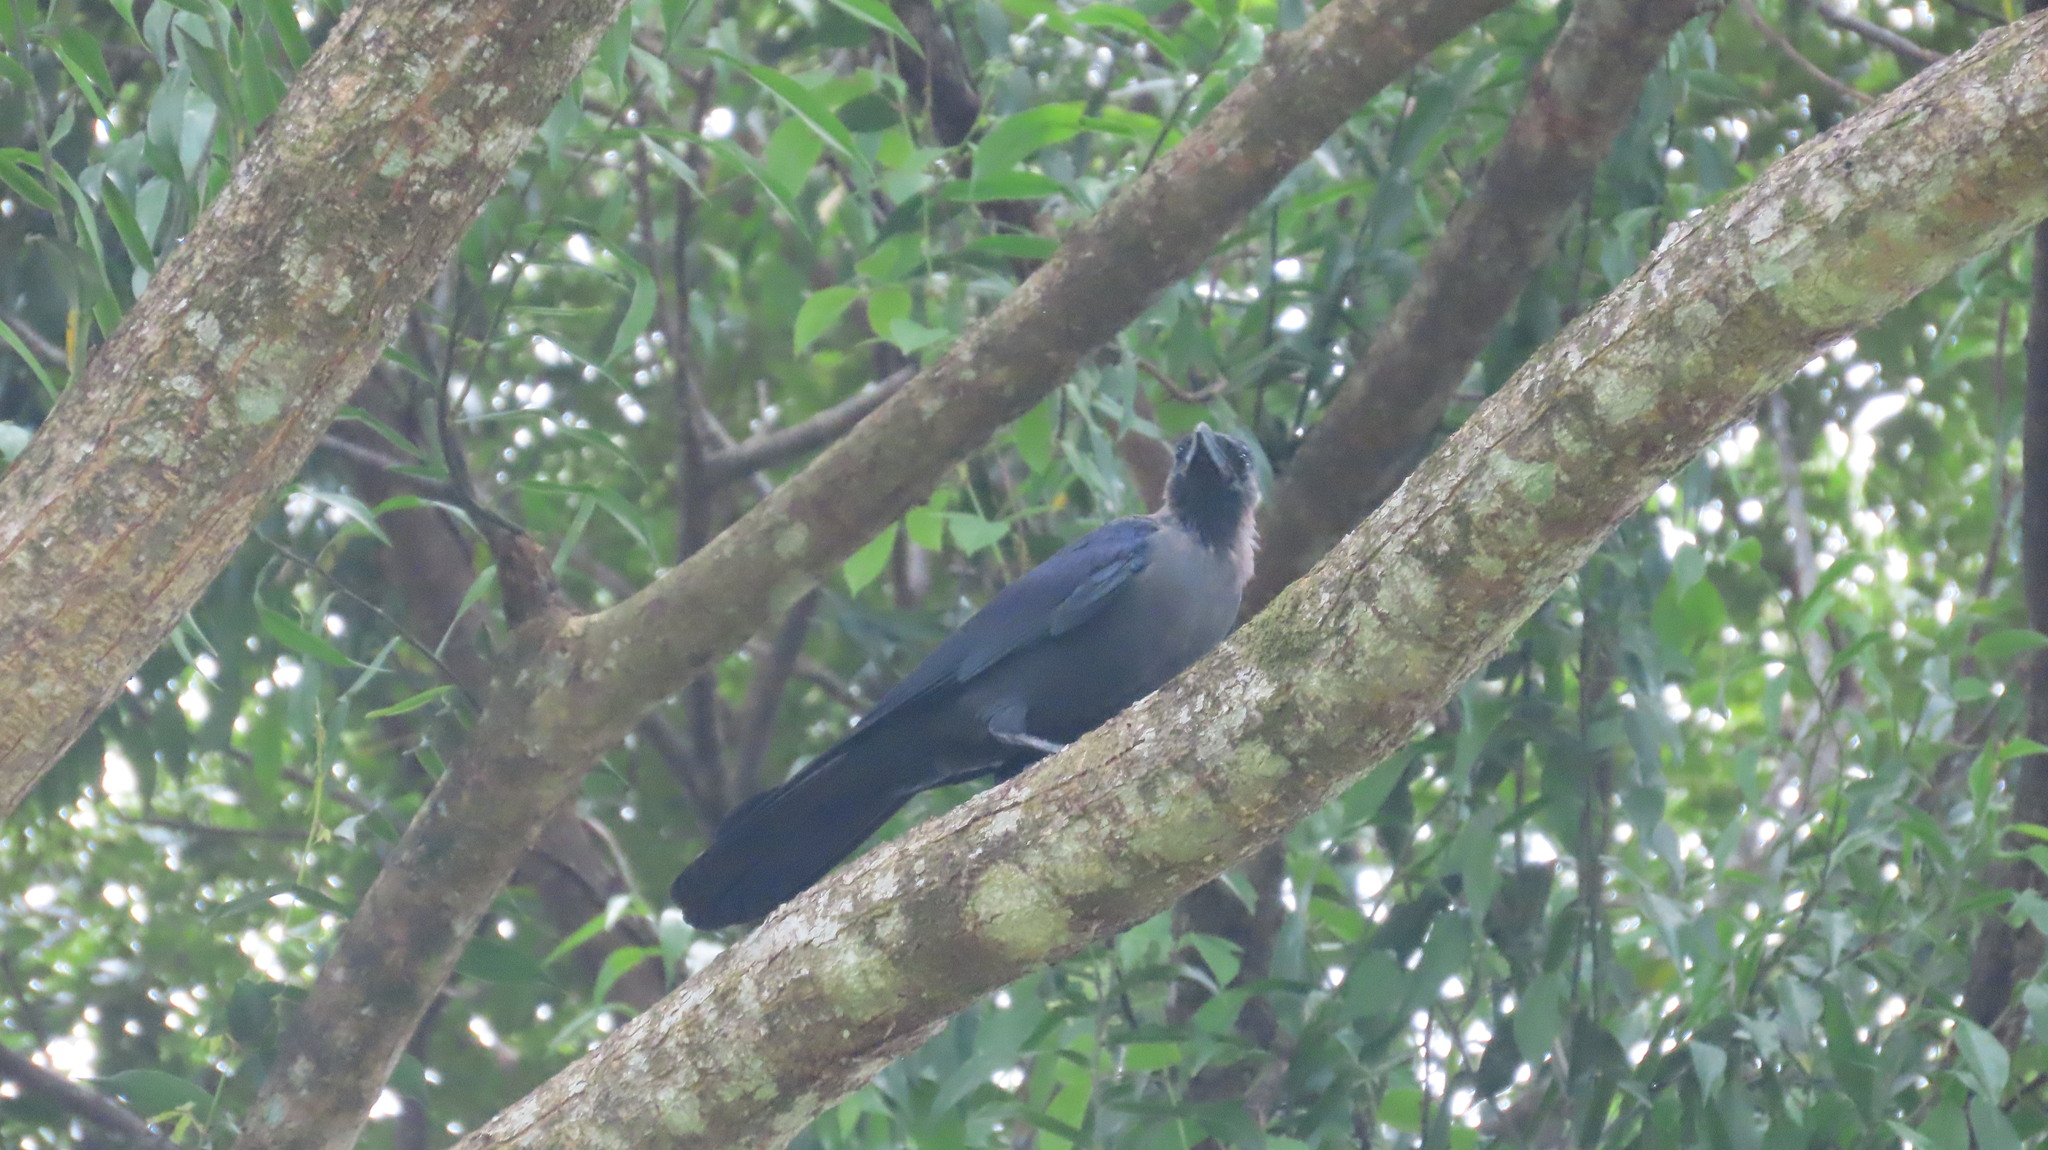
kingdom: Animalia
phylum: Chordata
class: Aves
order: Passeriformes
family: Corvidae
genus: Corvus
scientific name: Corvus splendens
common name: House crow
